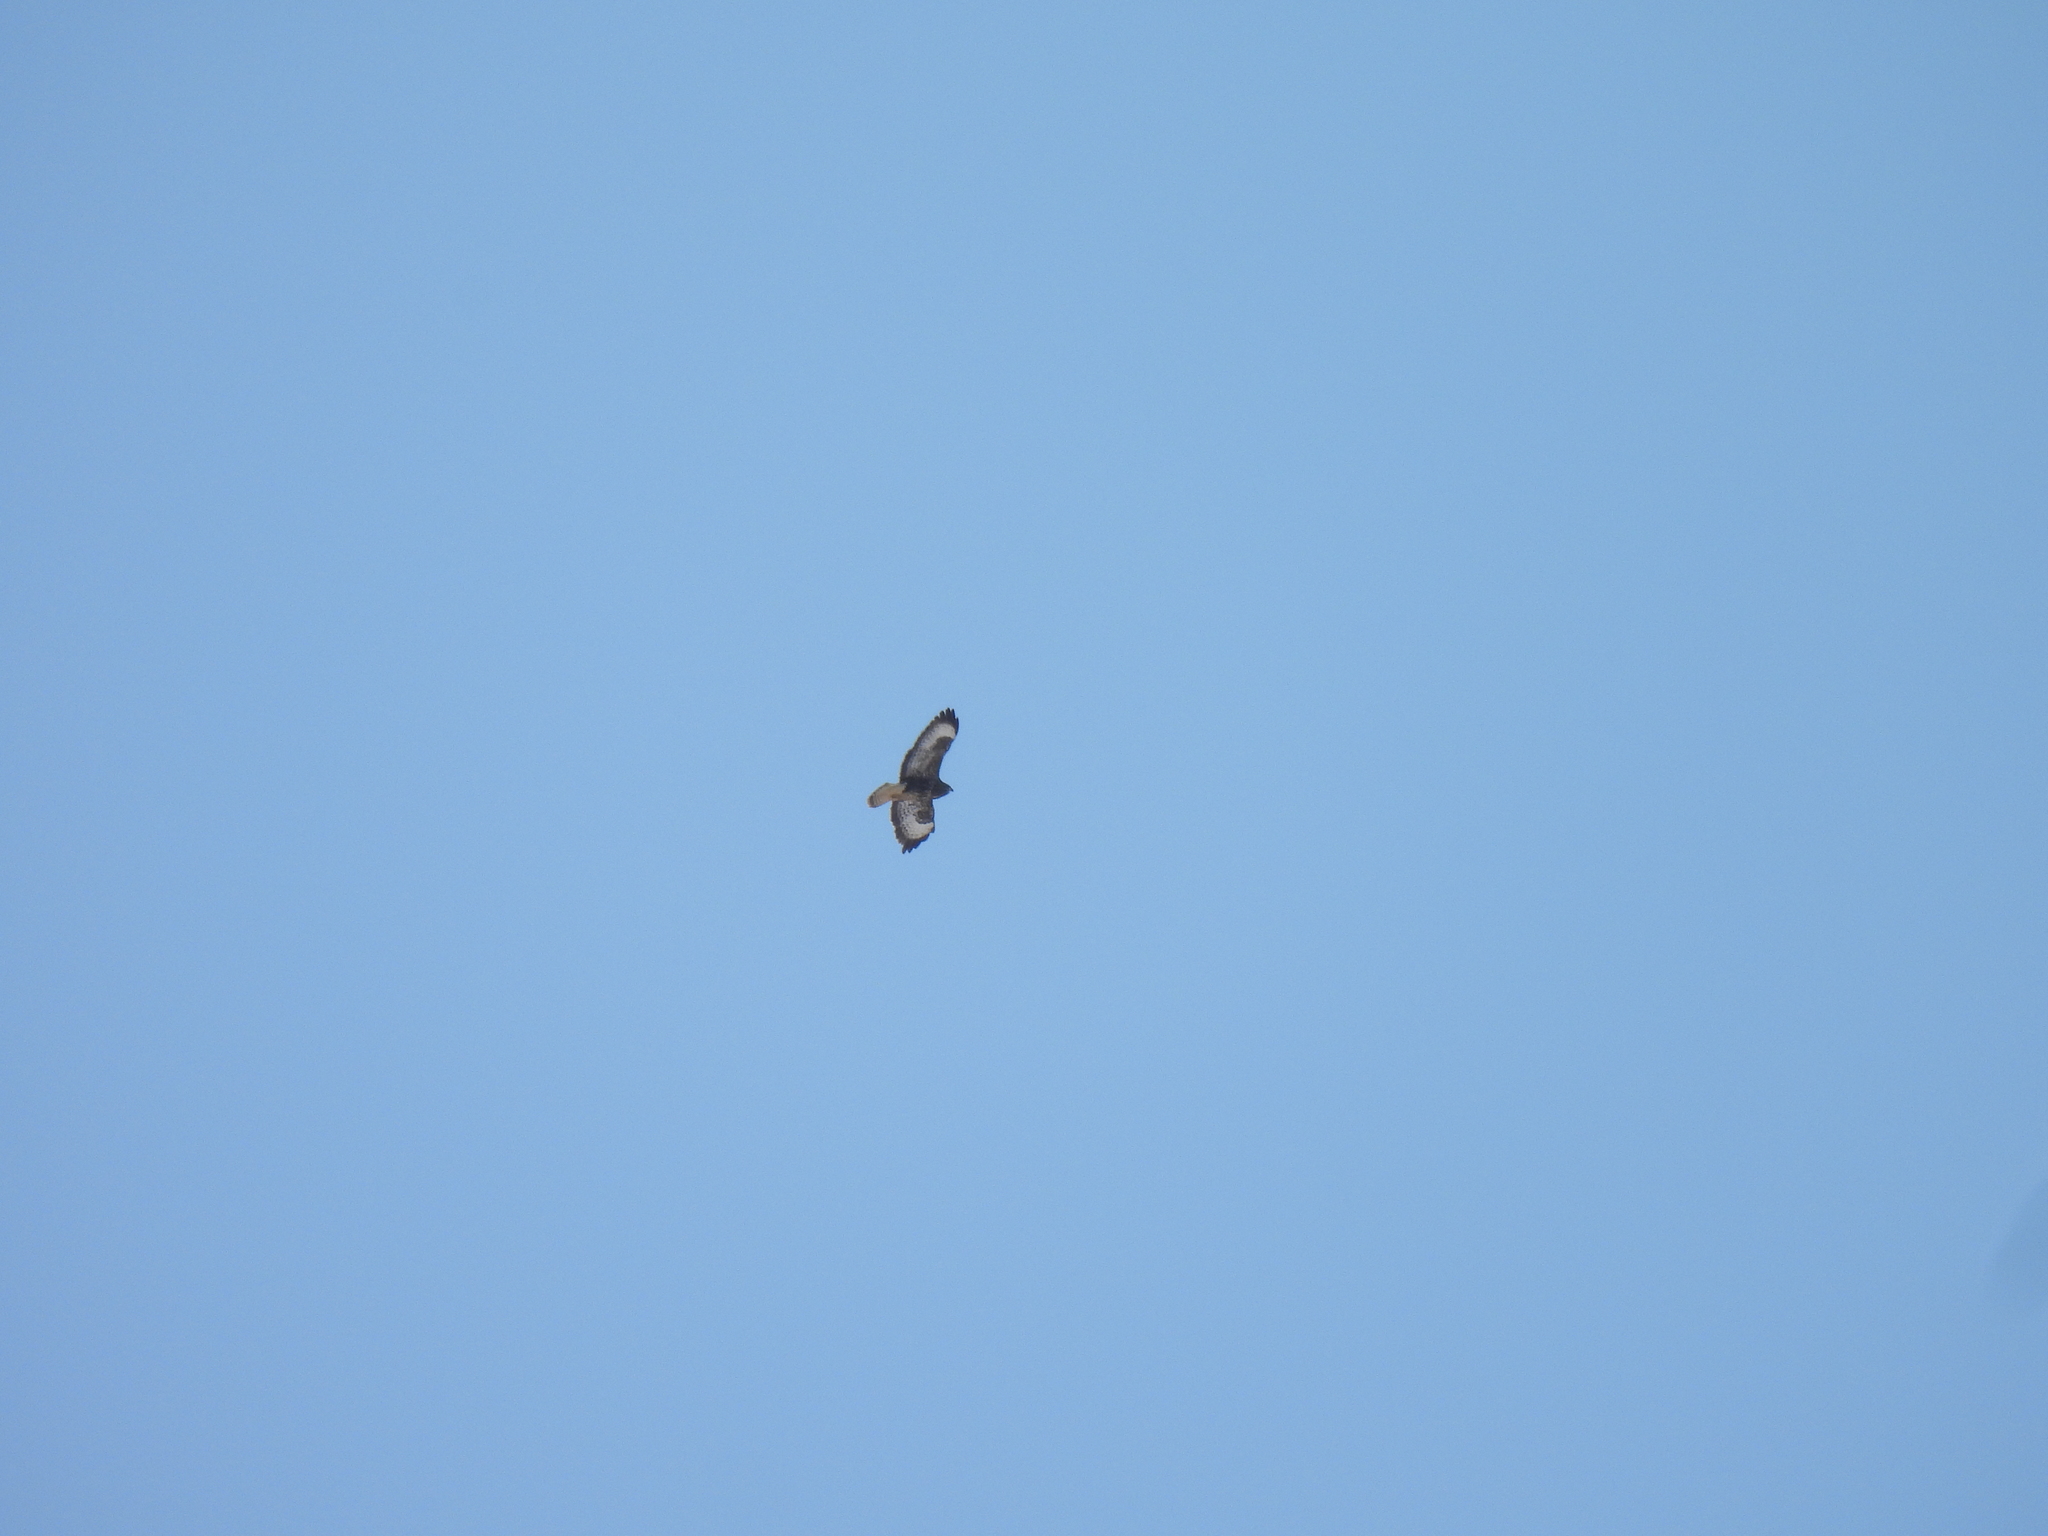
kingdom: Animalia
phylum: Chordata
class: Aves
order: Accipitriformes
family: Accipitridae
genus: Buteo
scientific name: Buteo buteo
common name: Common buzzard
